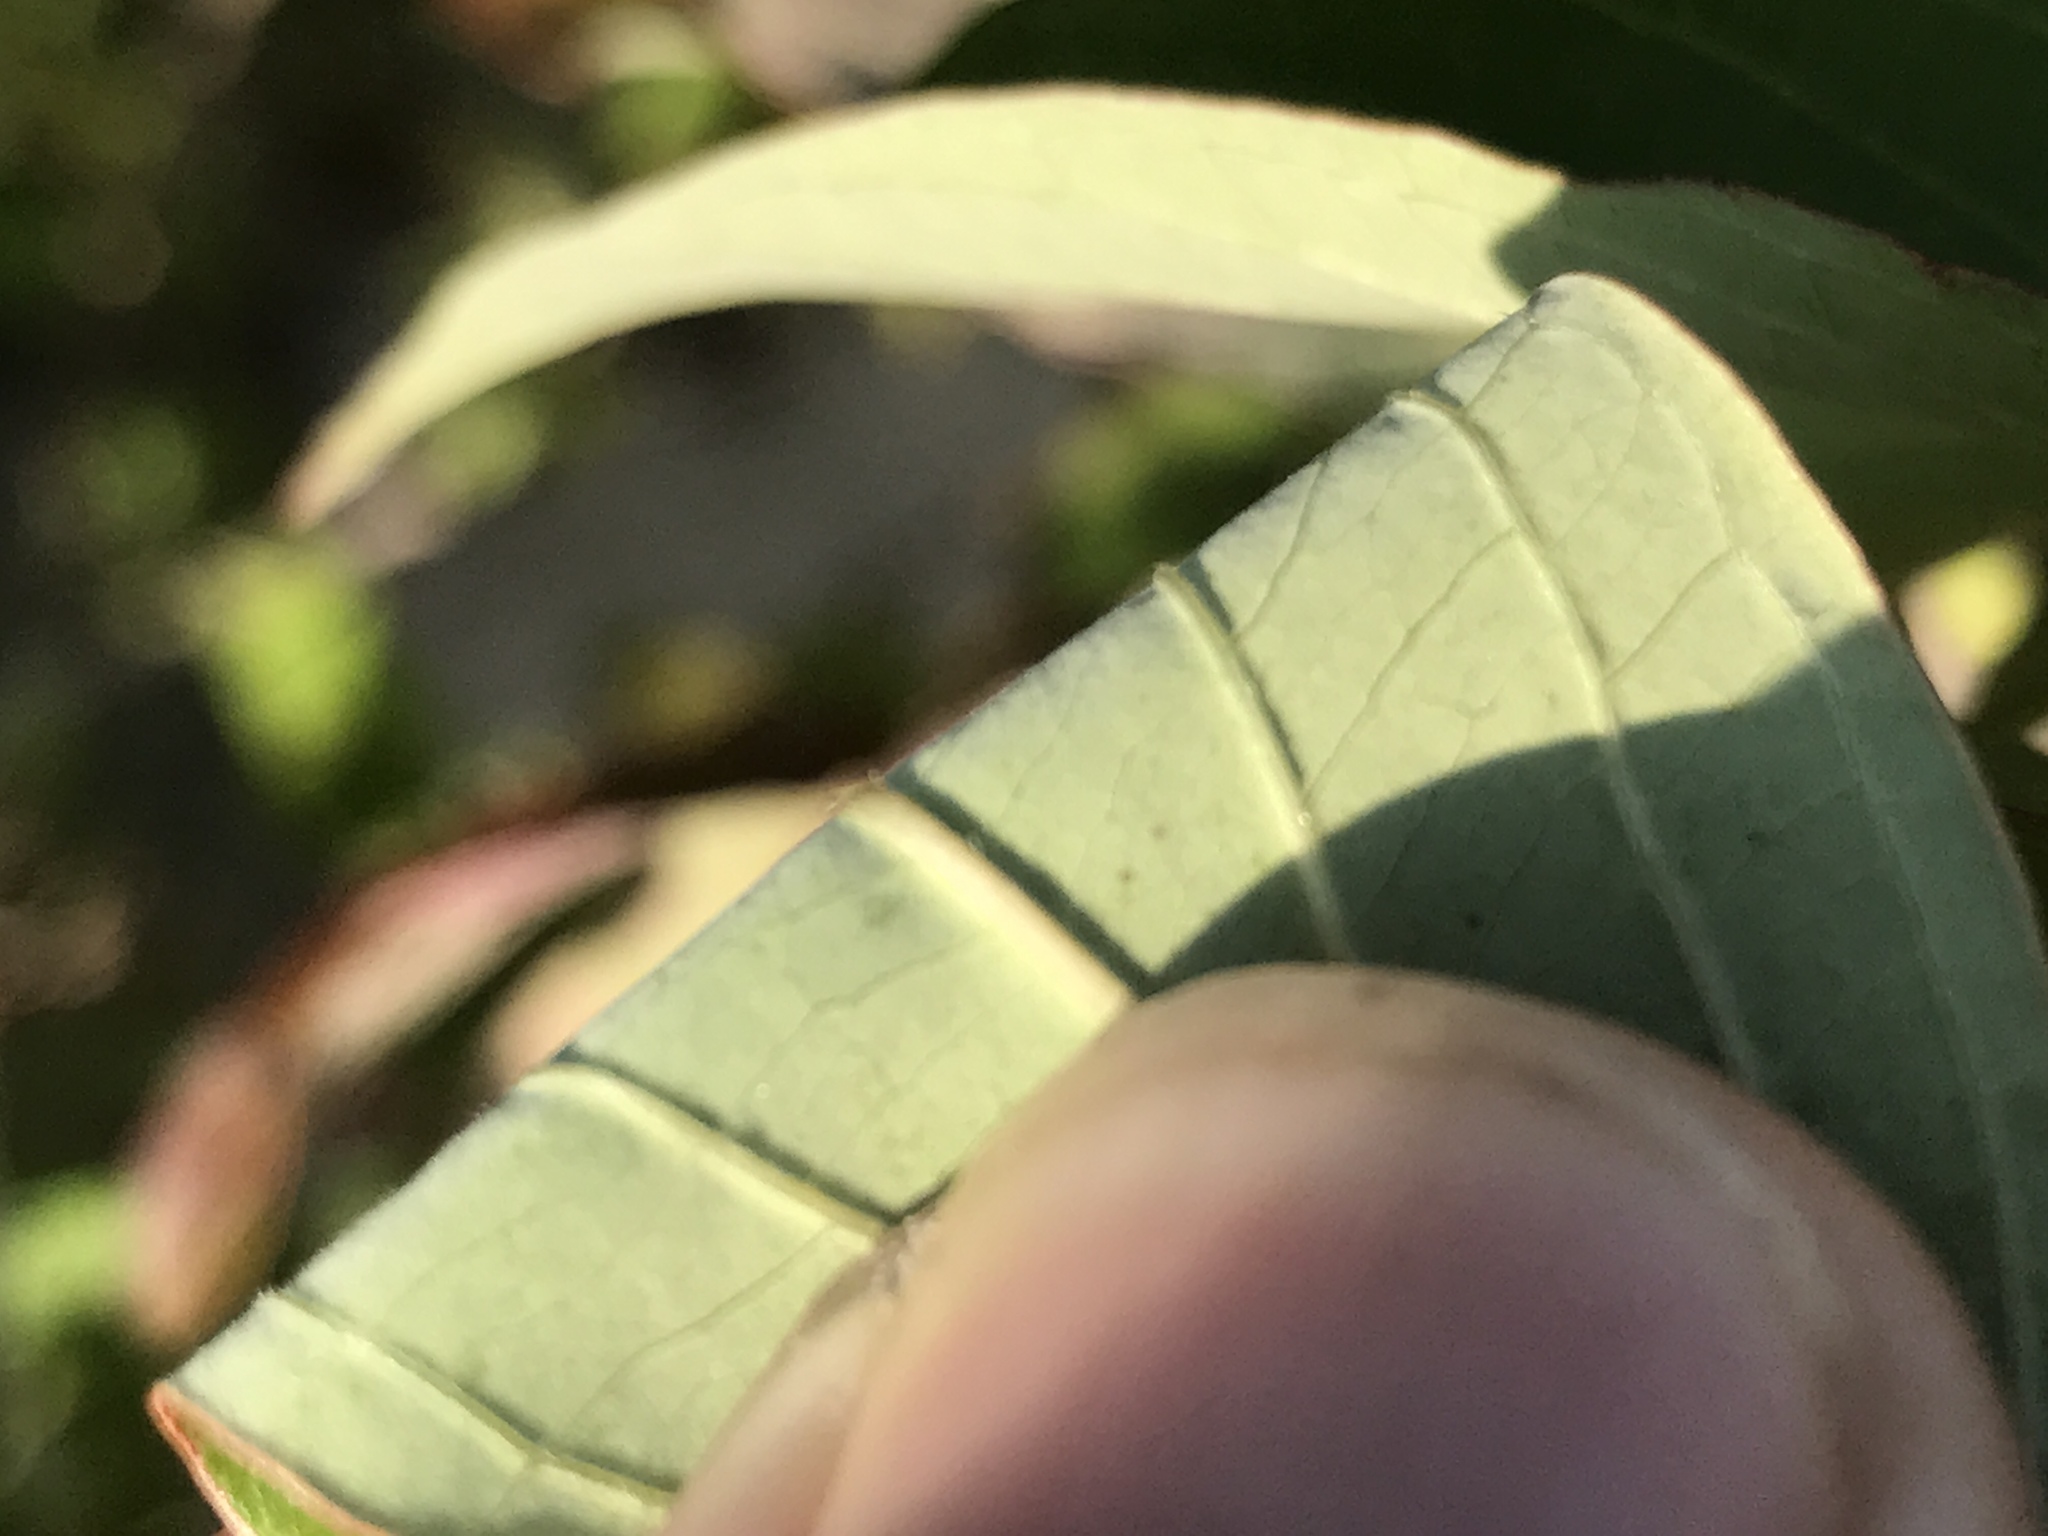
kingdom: Plantae
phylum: Tracheophyta
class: Magnoliopsida
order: Cornales
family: Cornaceae
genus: Cornus
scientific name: Cornus amomum
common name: Silky dogwood
